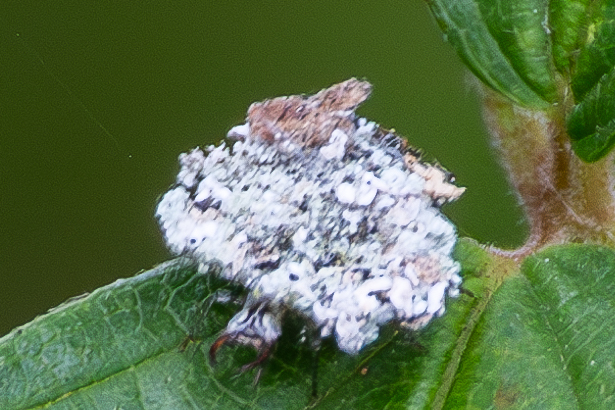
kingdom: Animalia
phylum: Arthropoda
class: Insecta
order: Neuroptera
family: Chrysopidae
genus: Leucochrysa
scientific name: Leucochrysa pavida
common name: Lichen-carrying green lacewing
